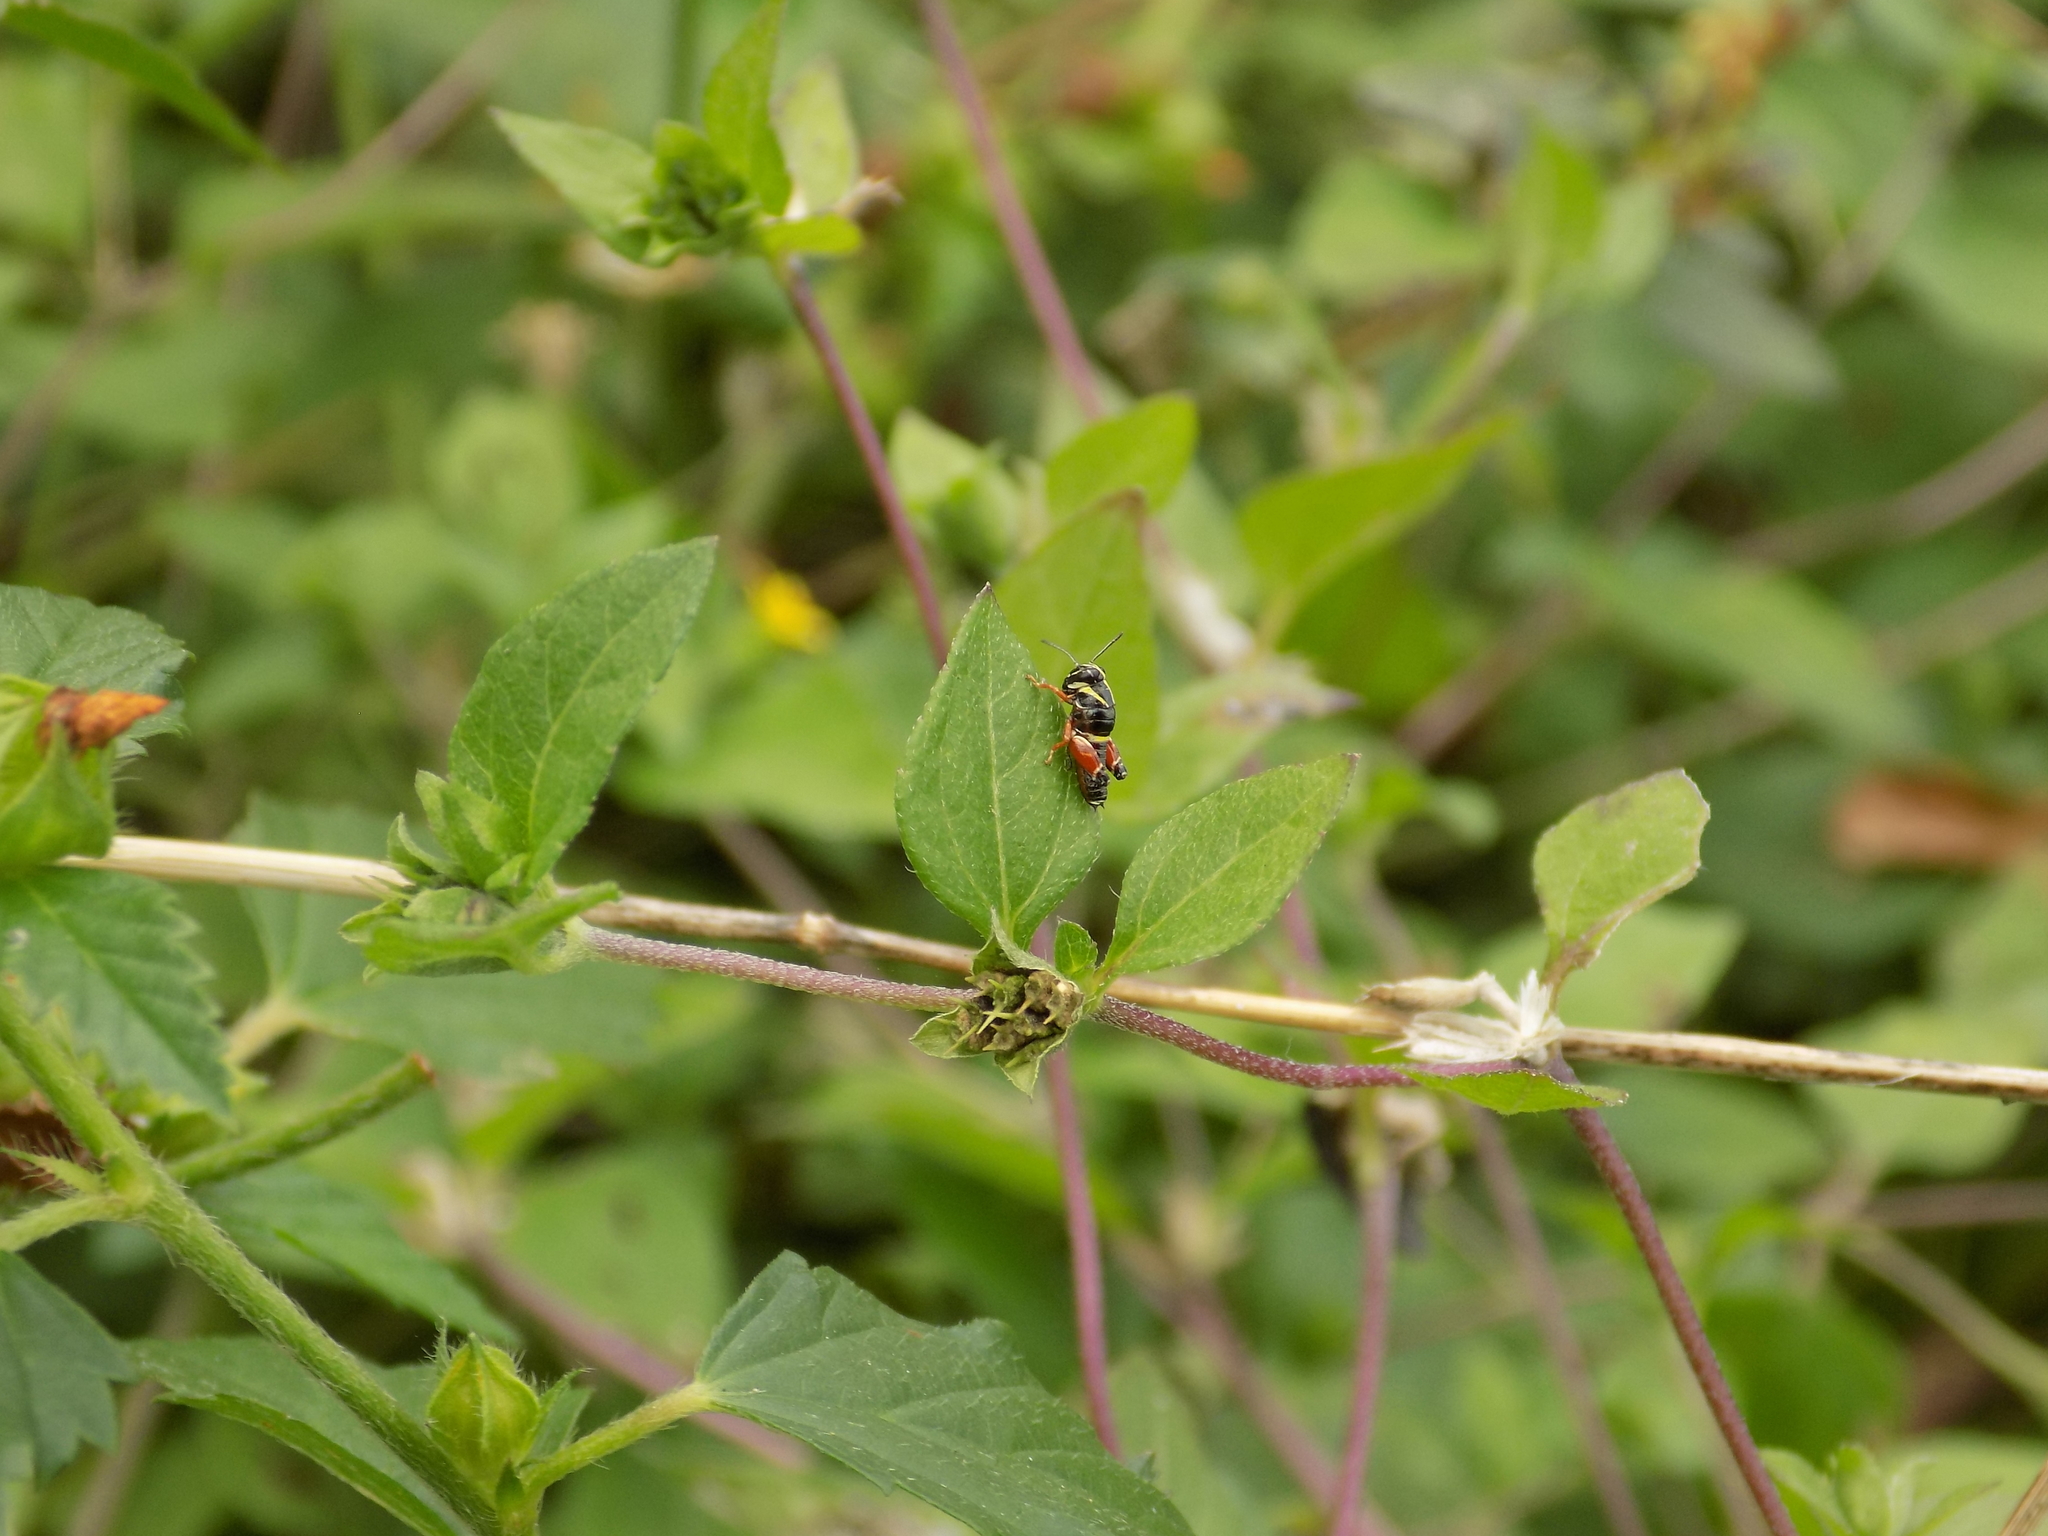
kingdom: Animalia
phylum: Arthropoda
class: Insecta
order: Orthoptera
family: Acrididae
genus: Aidemona
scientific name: Aidemona azteca
